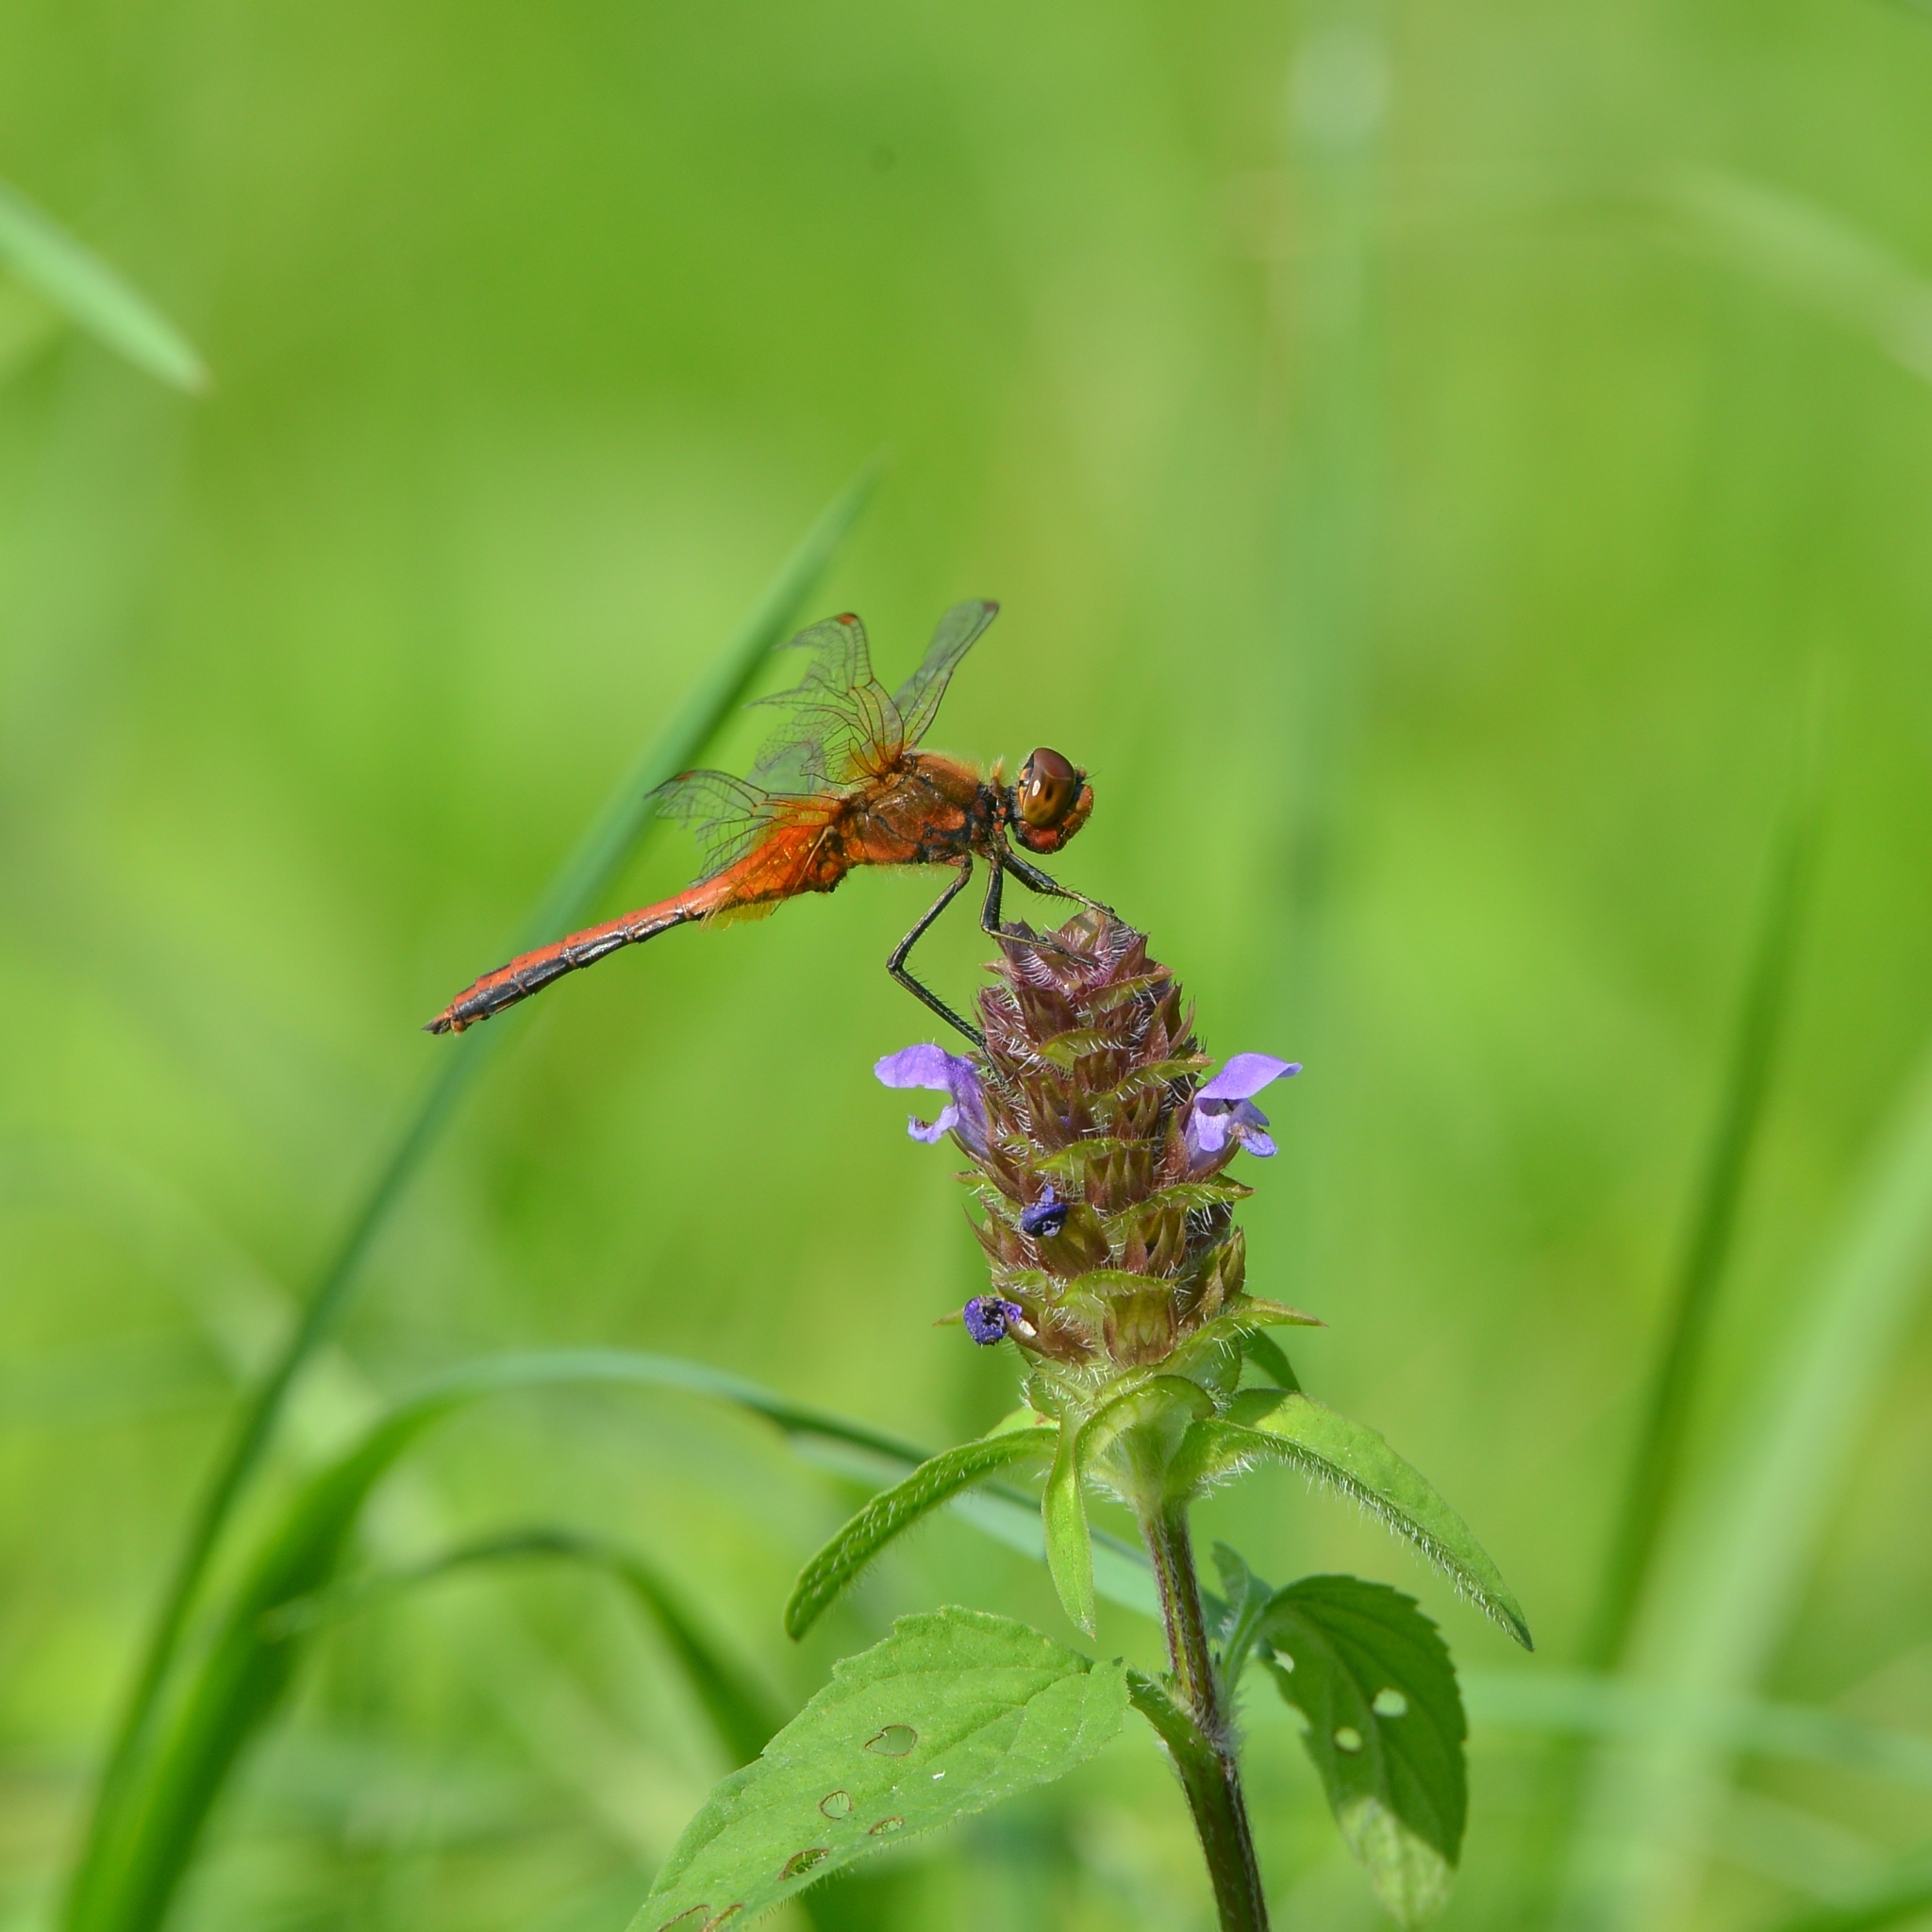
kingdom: Animalia
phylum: Arthropoda
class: Insecta
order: Odonata
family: Libellulidae
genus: Sympetrum
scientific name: Sympetrum flaveolum
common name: Yellow-winged darter
